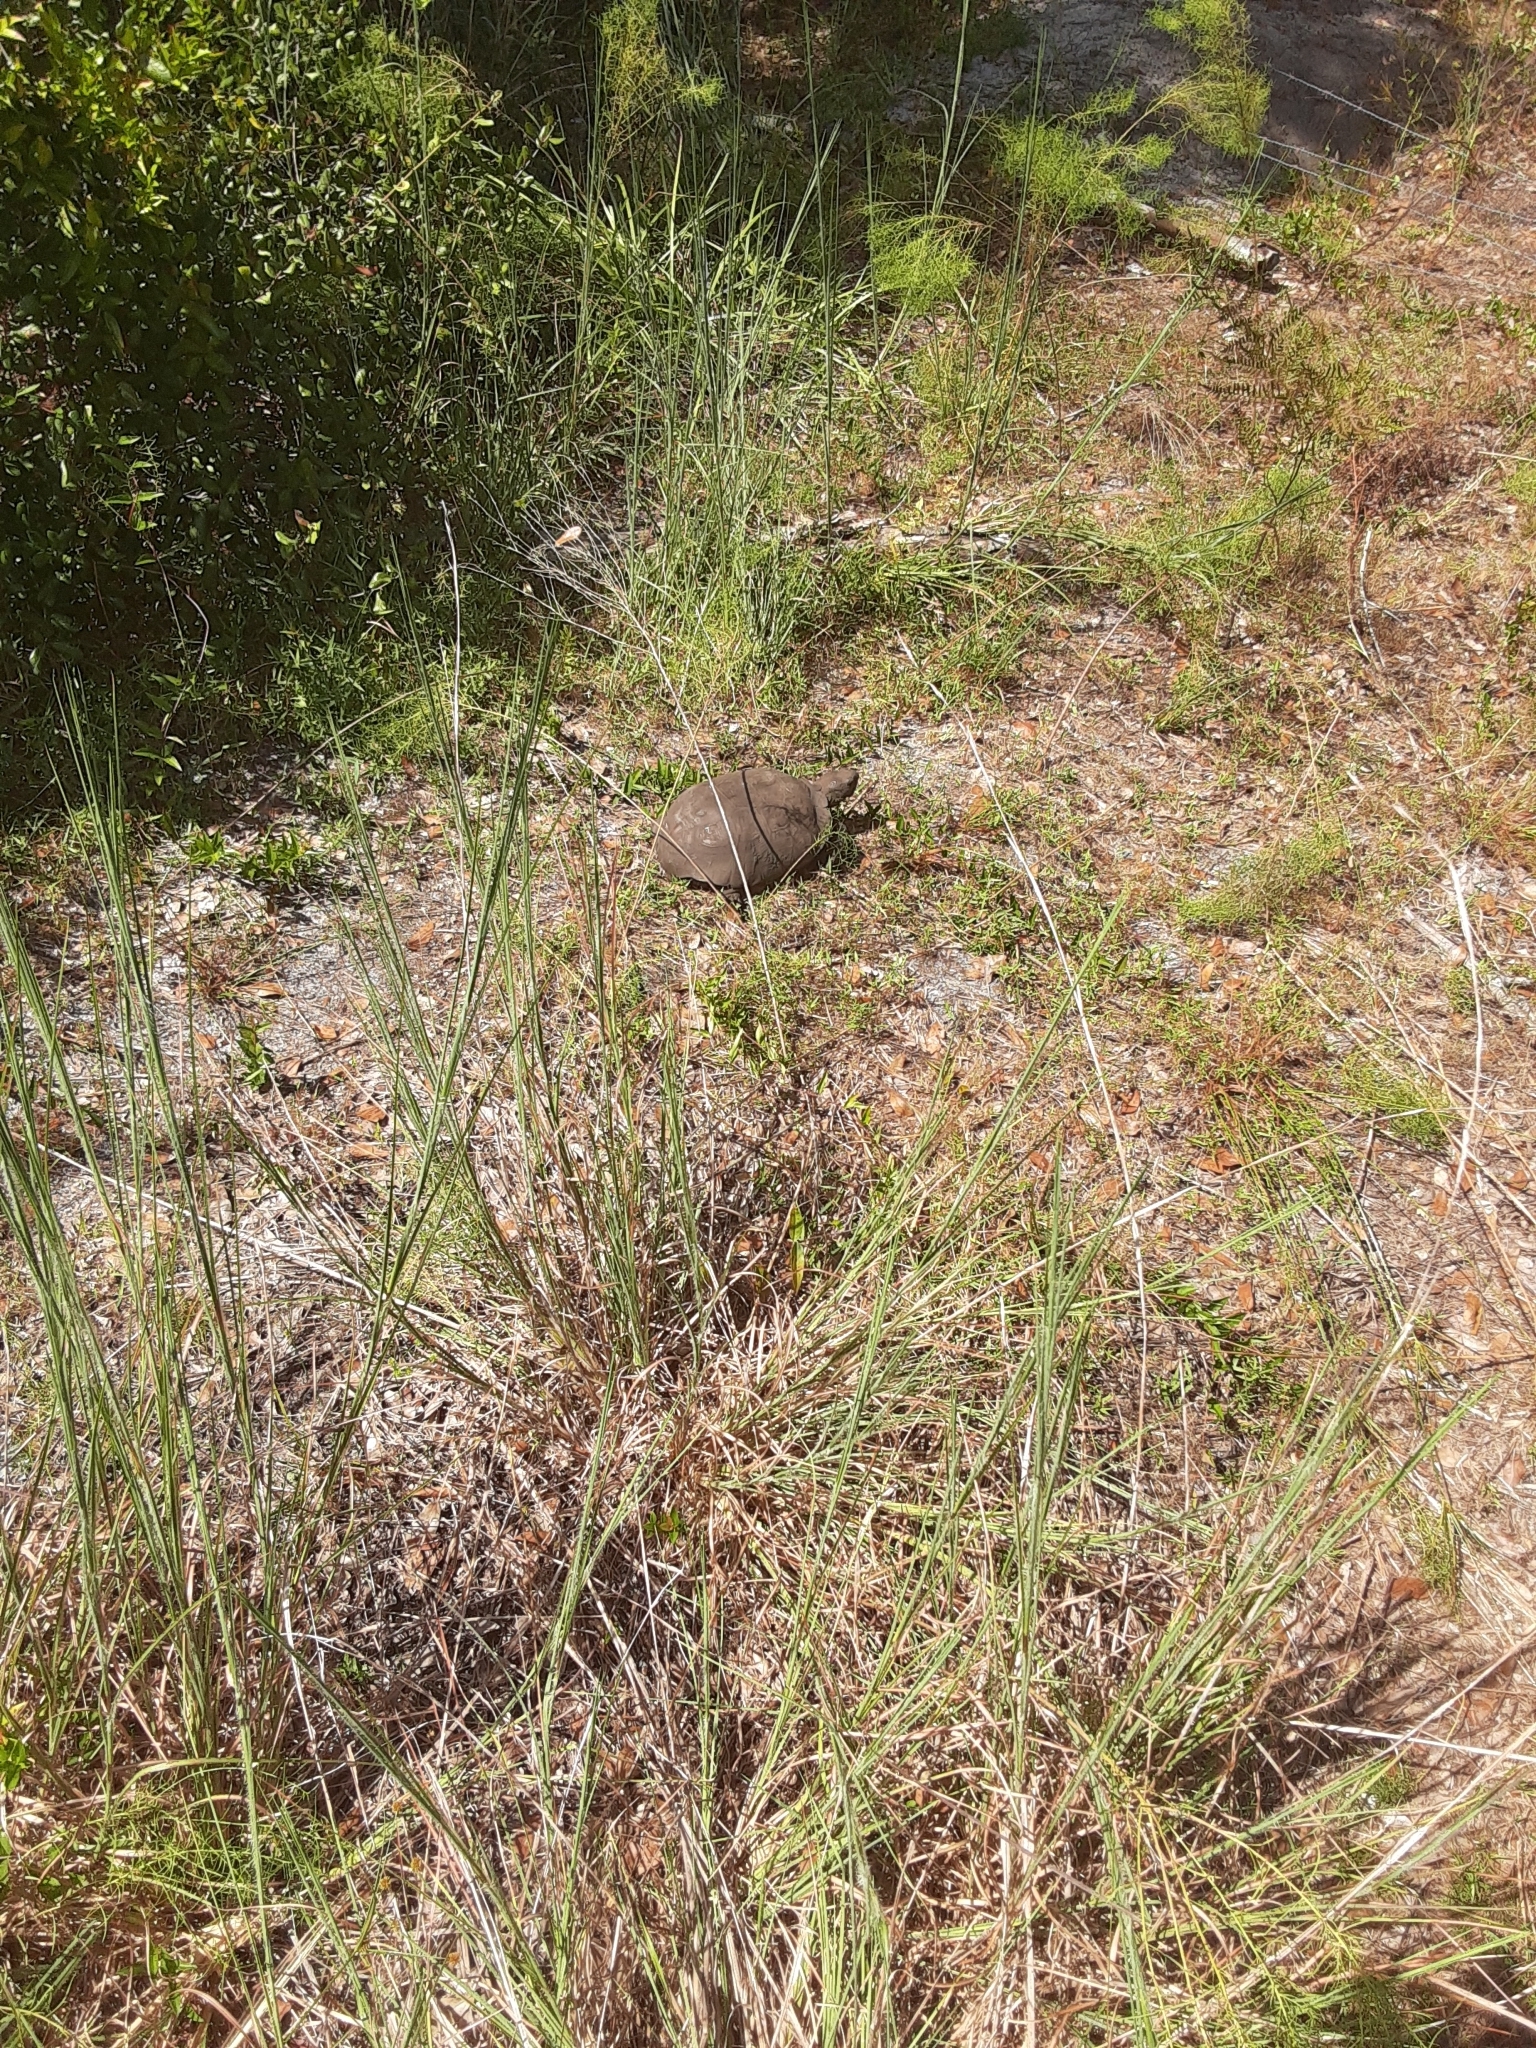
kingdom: Animalia
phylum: Chordata
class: Testudines
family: Testudinidae
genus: Gopherus
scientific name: Gopherus polyphemus
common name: Florida gopher tortoise
